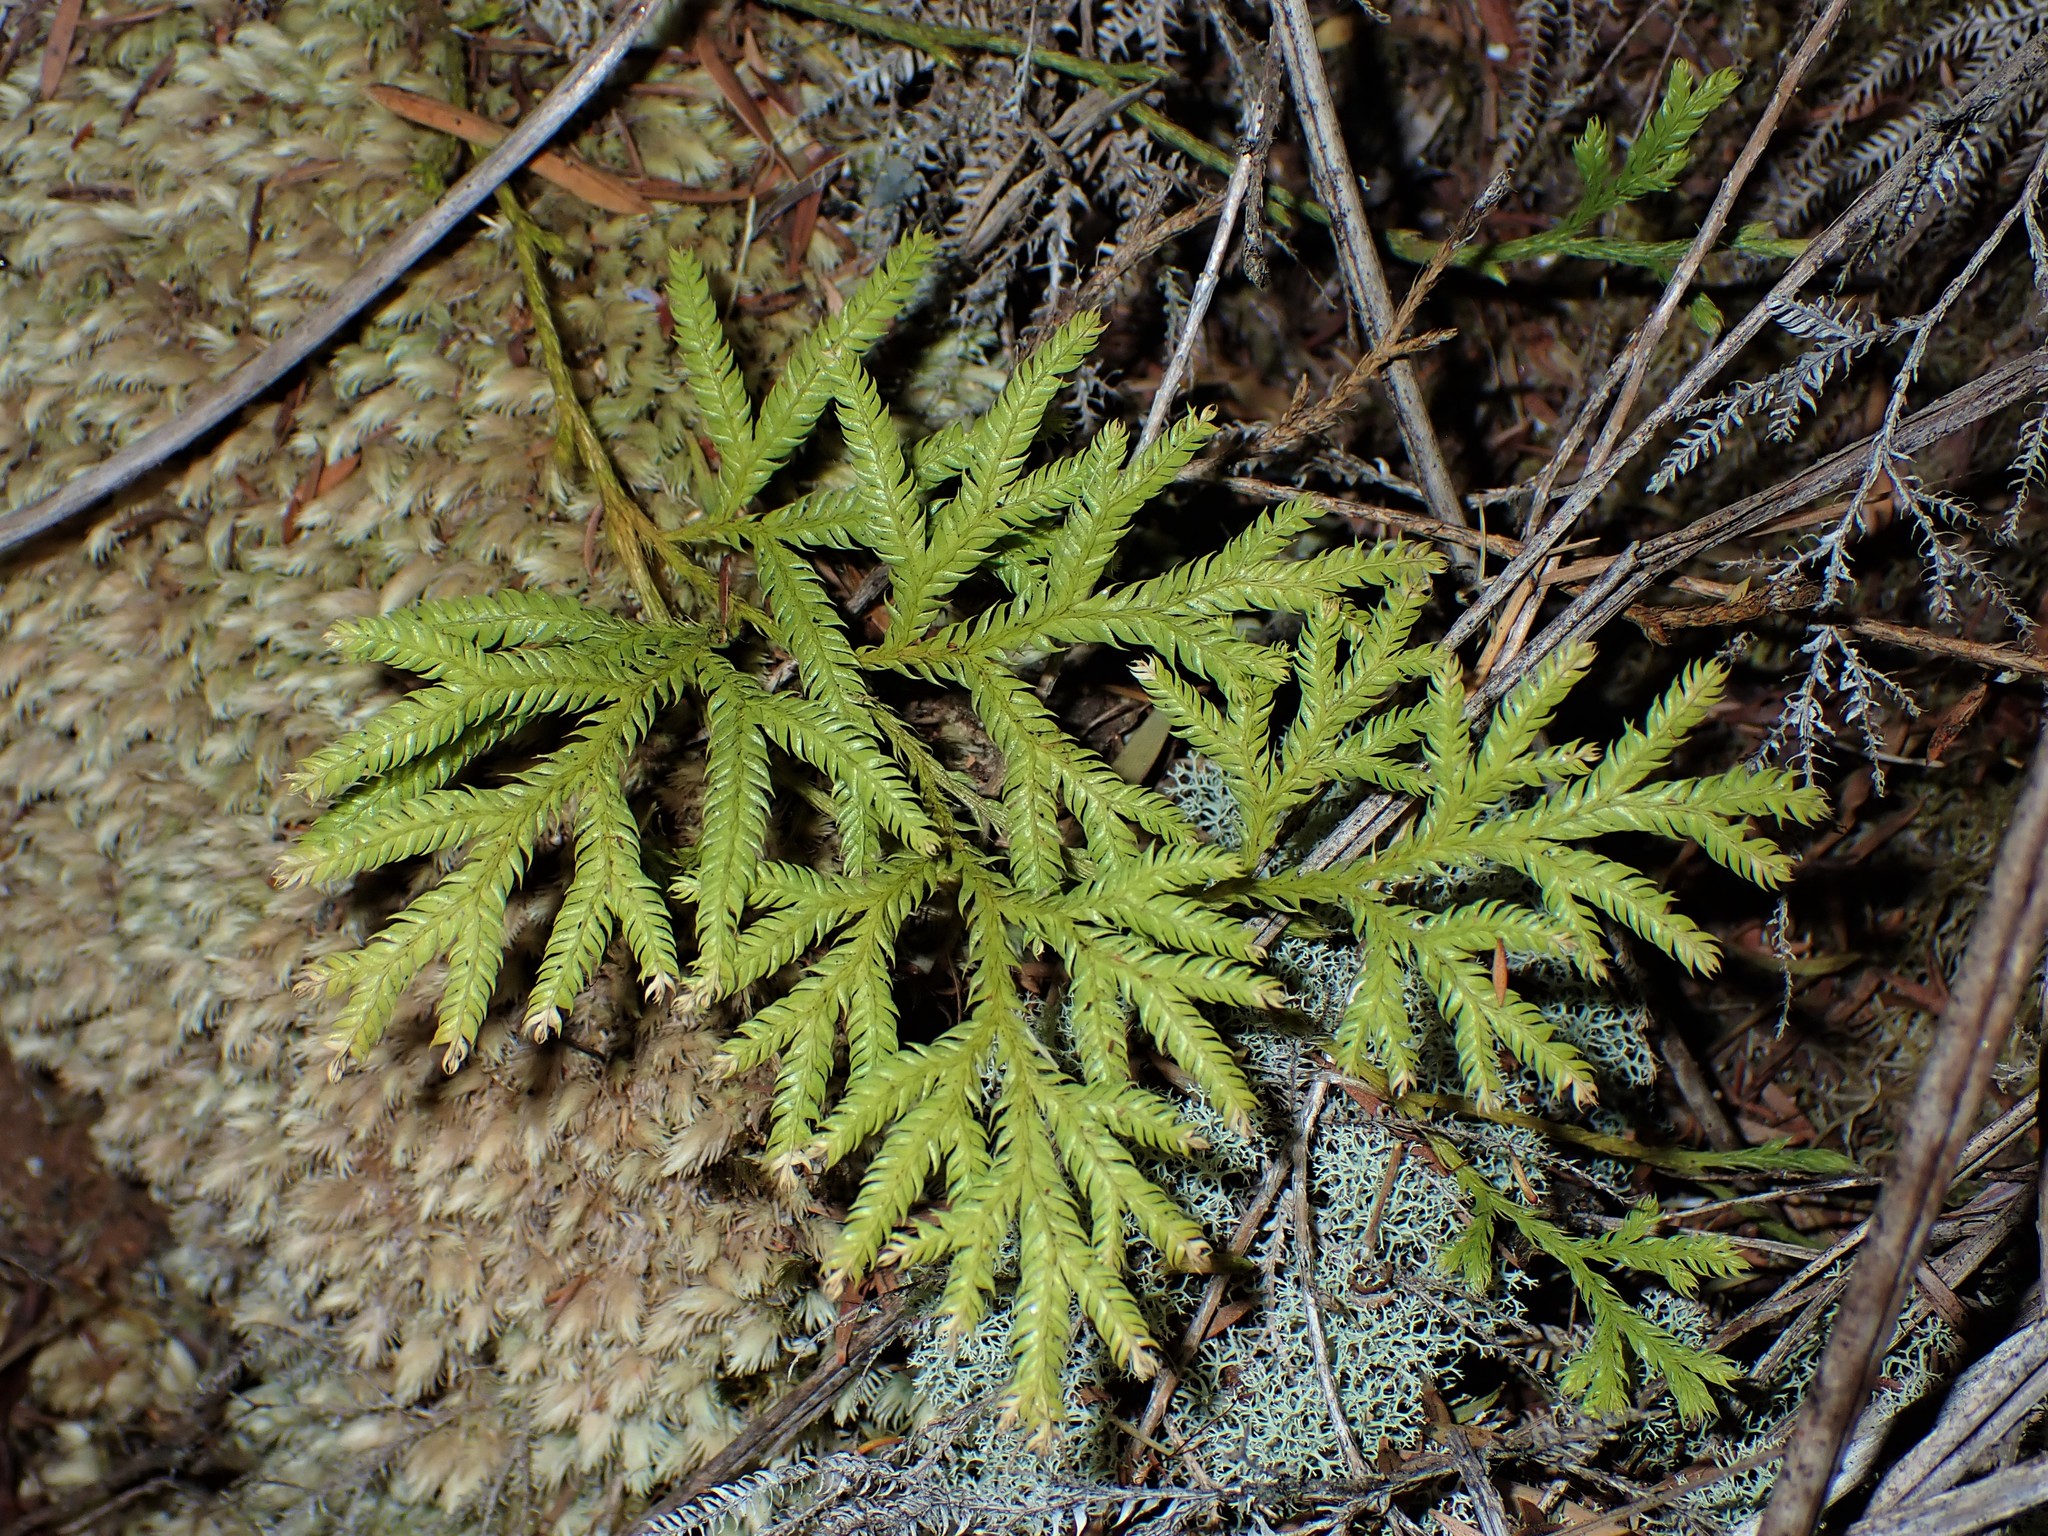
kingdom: Plantae
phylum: Tracheophyta
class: Lycopodiopsida
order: Lycopodiales
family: Lycopodiaceae
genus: Lycopodium
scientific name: Lycopodium volubile
